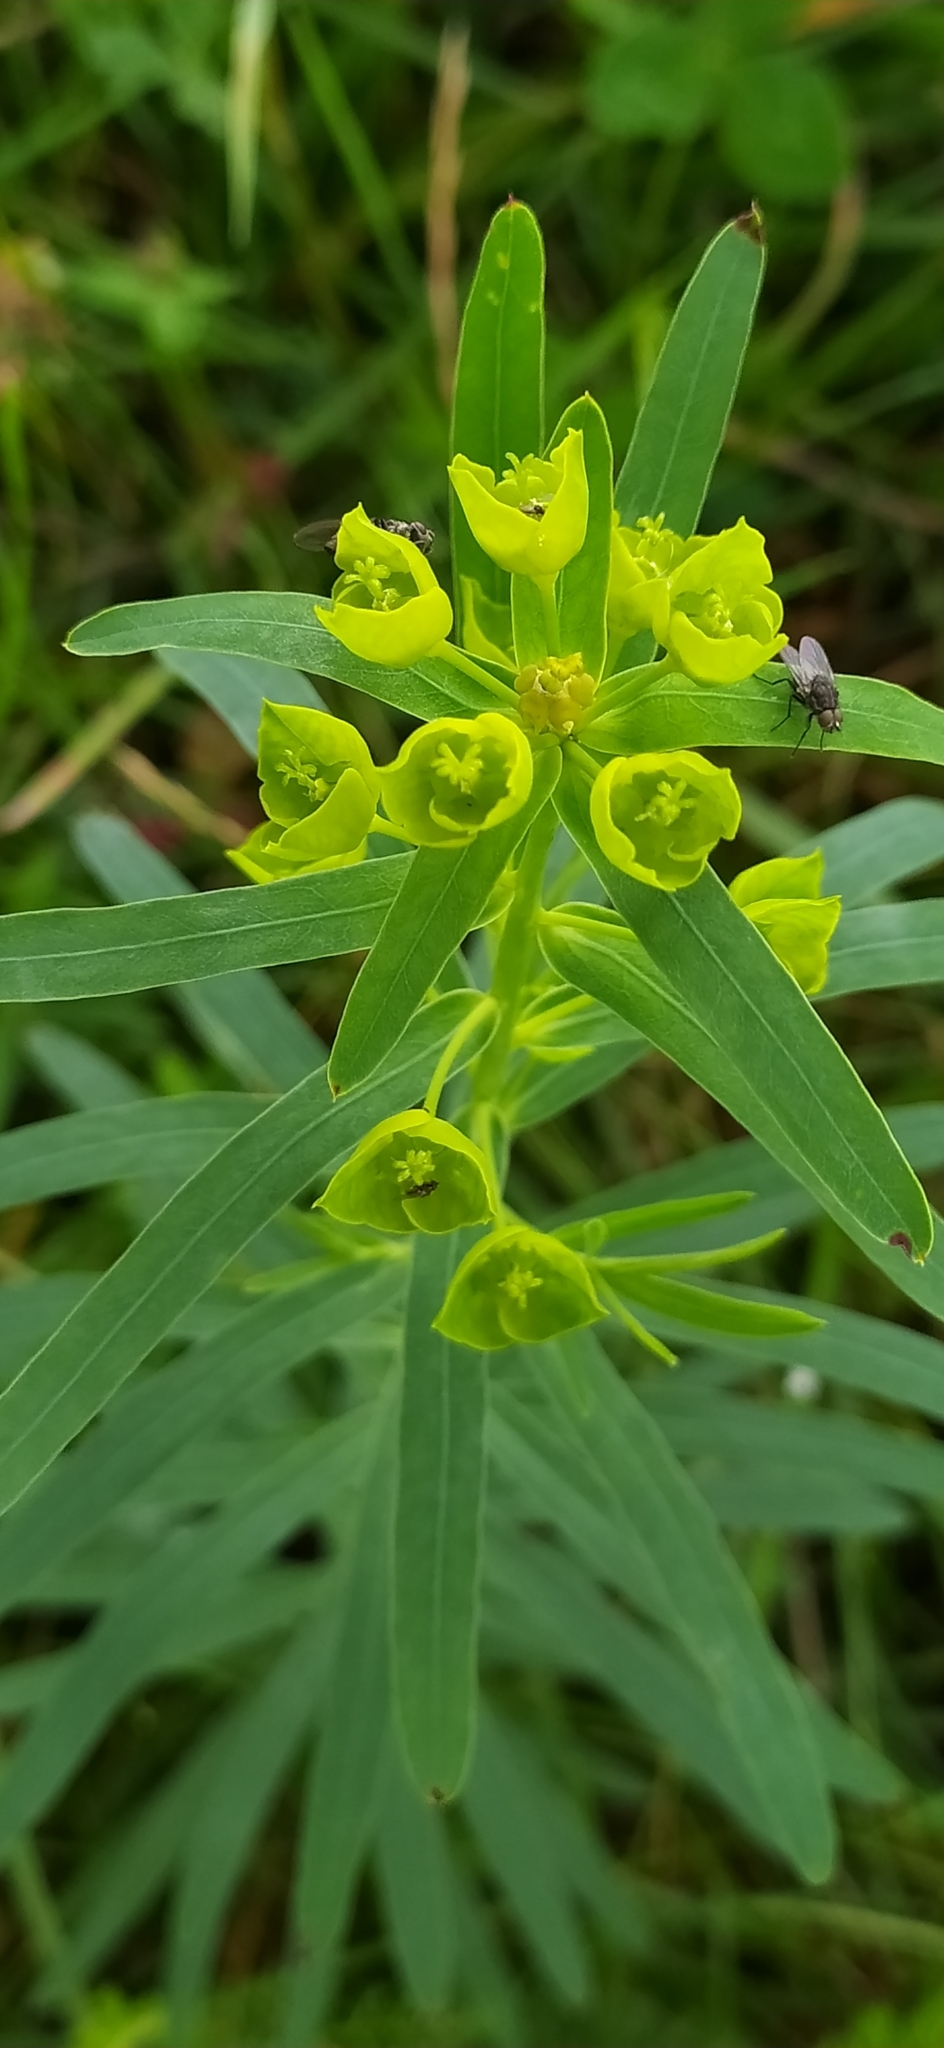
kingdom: Plantae
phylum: Tracheophyta
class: Magnoliopsida
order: Malpighiales
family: Euphorbiaceae
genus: Euphorbia
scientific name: Euphorbia virgata
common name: Leafy spurge
